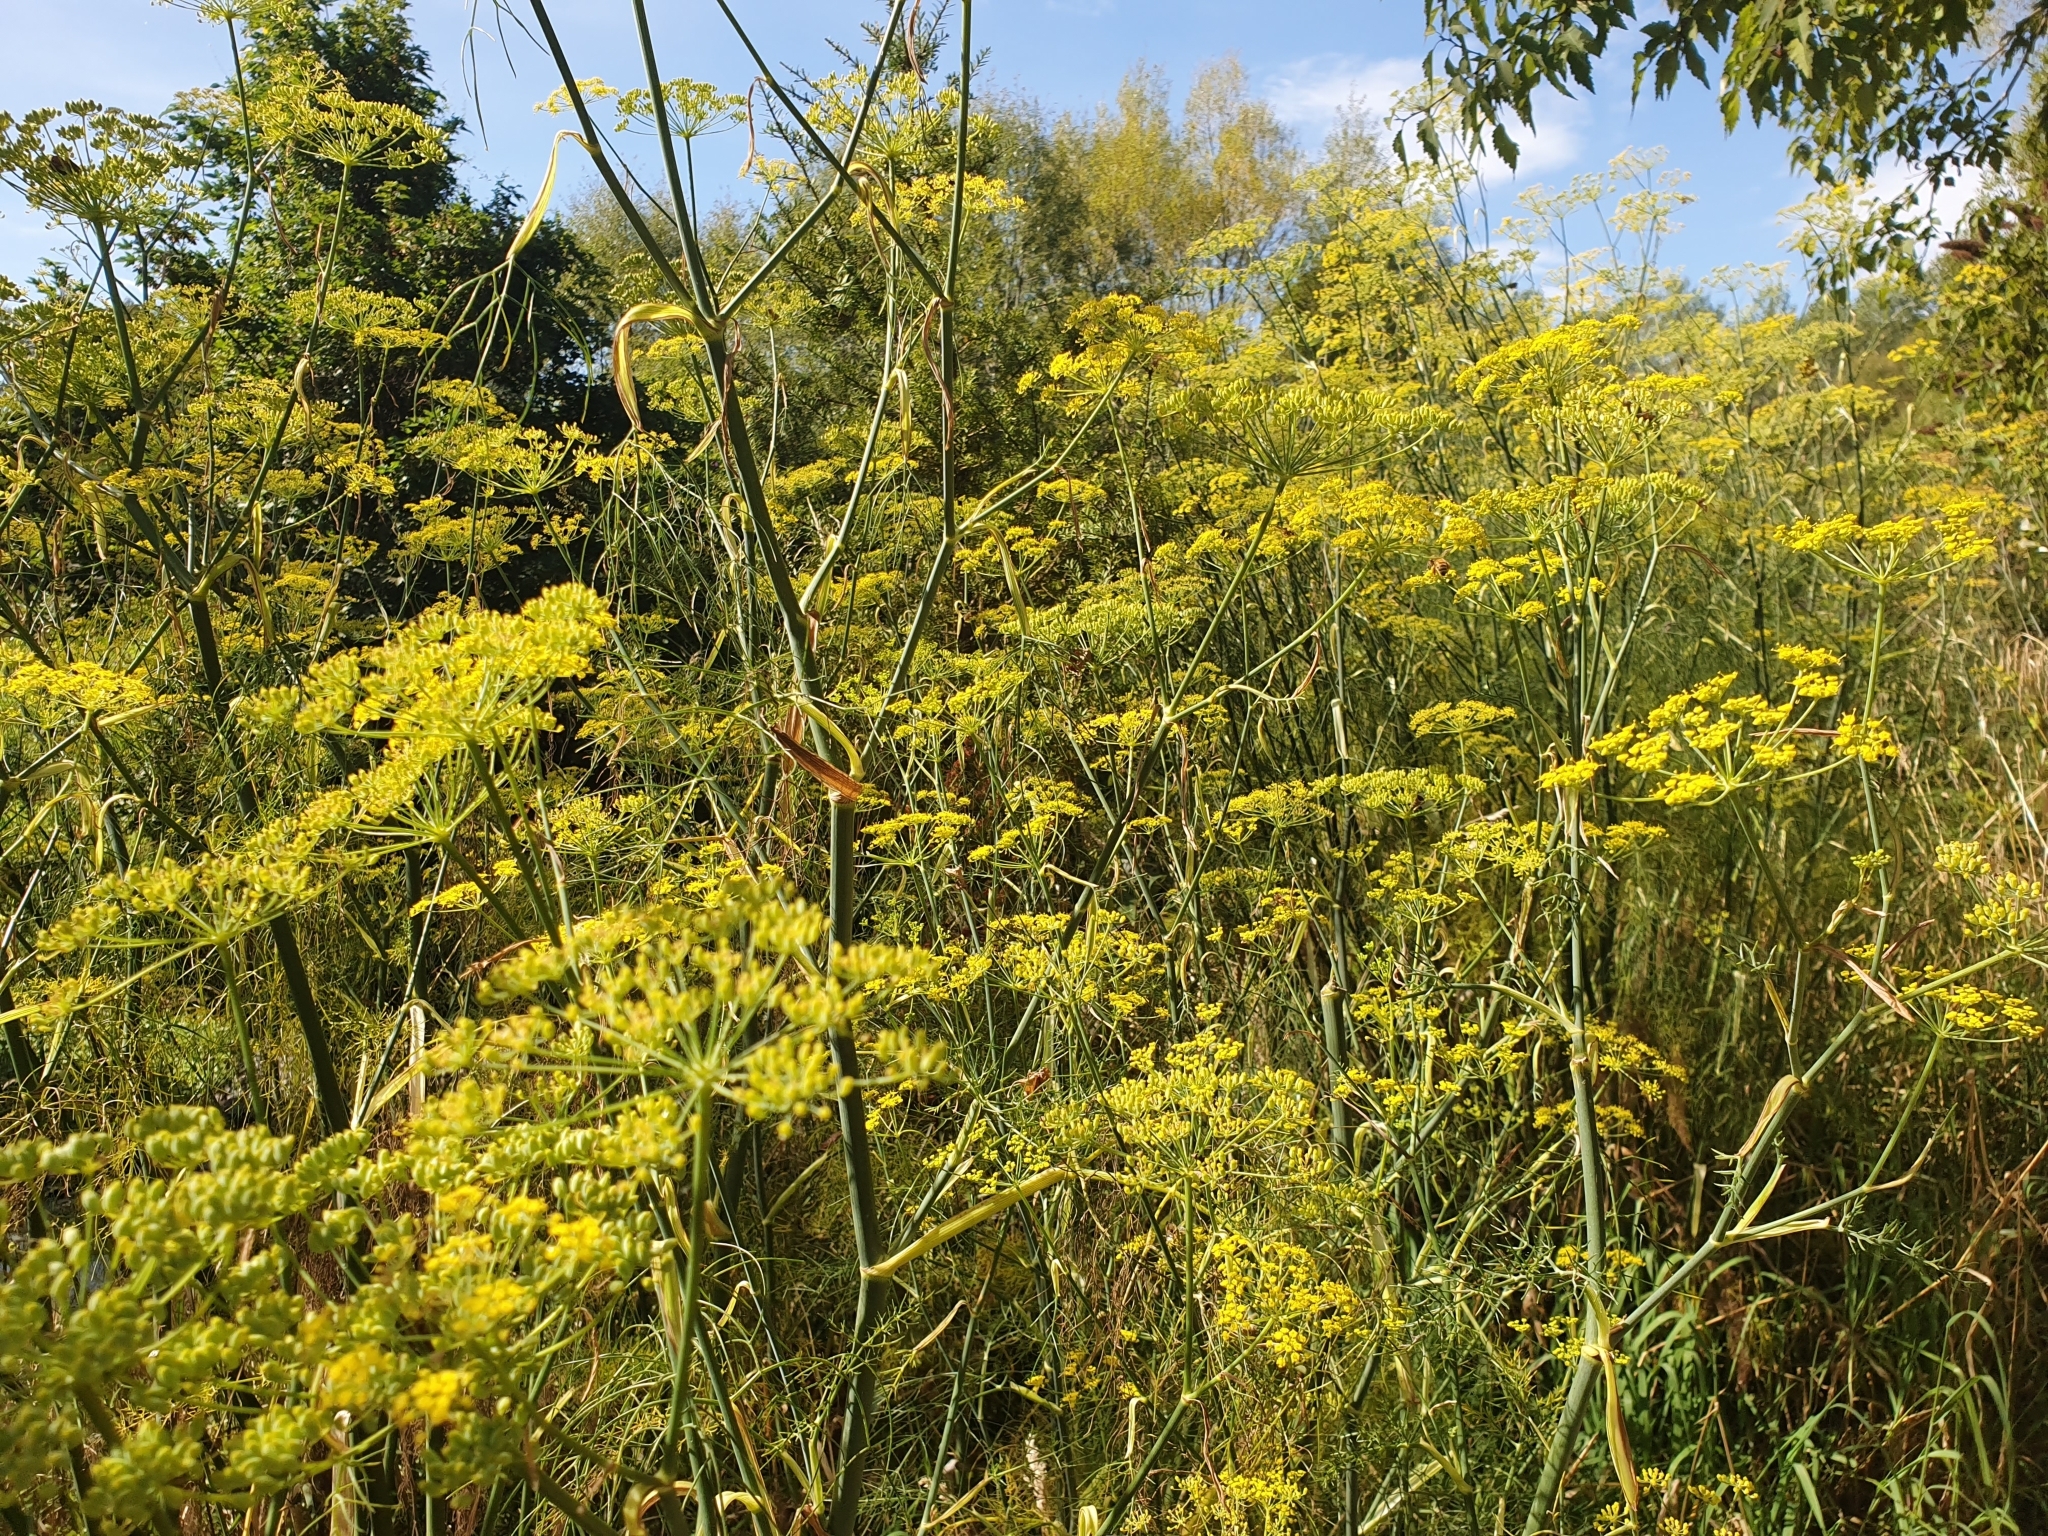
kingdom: Plantae
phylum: Tracheophyta
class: Magnoliopsida
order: Apiales
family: Apiaceae
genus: Foeniculum
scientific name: Foeniculum vulgare
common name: Fennel
